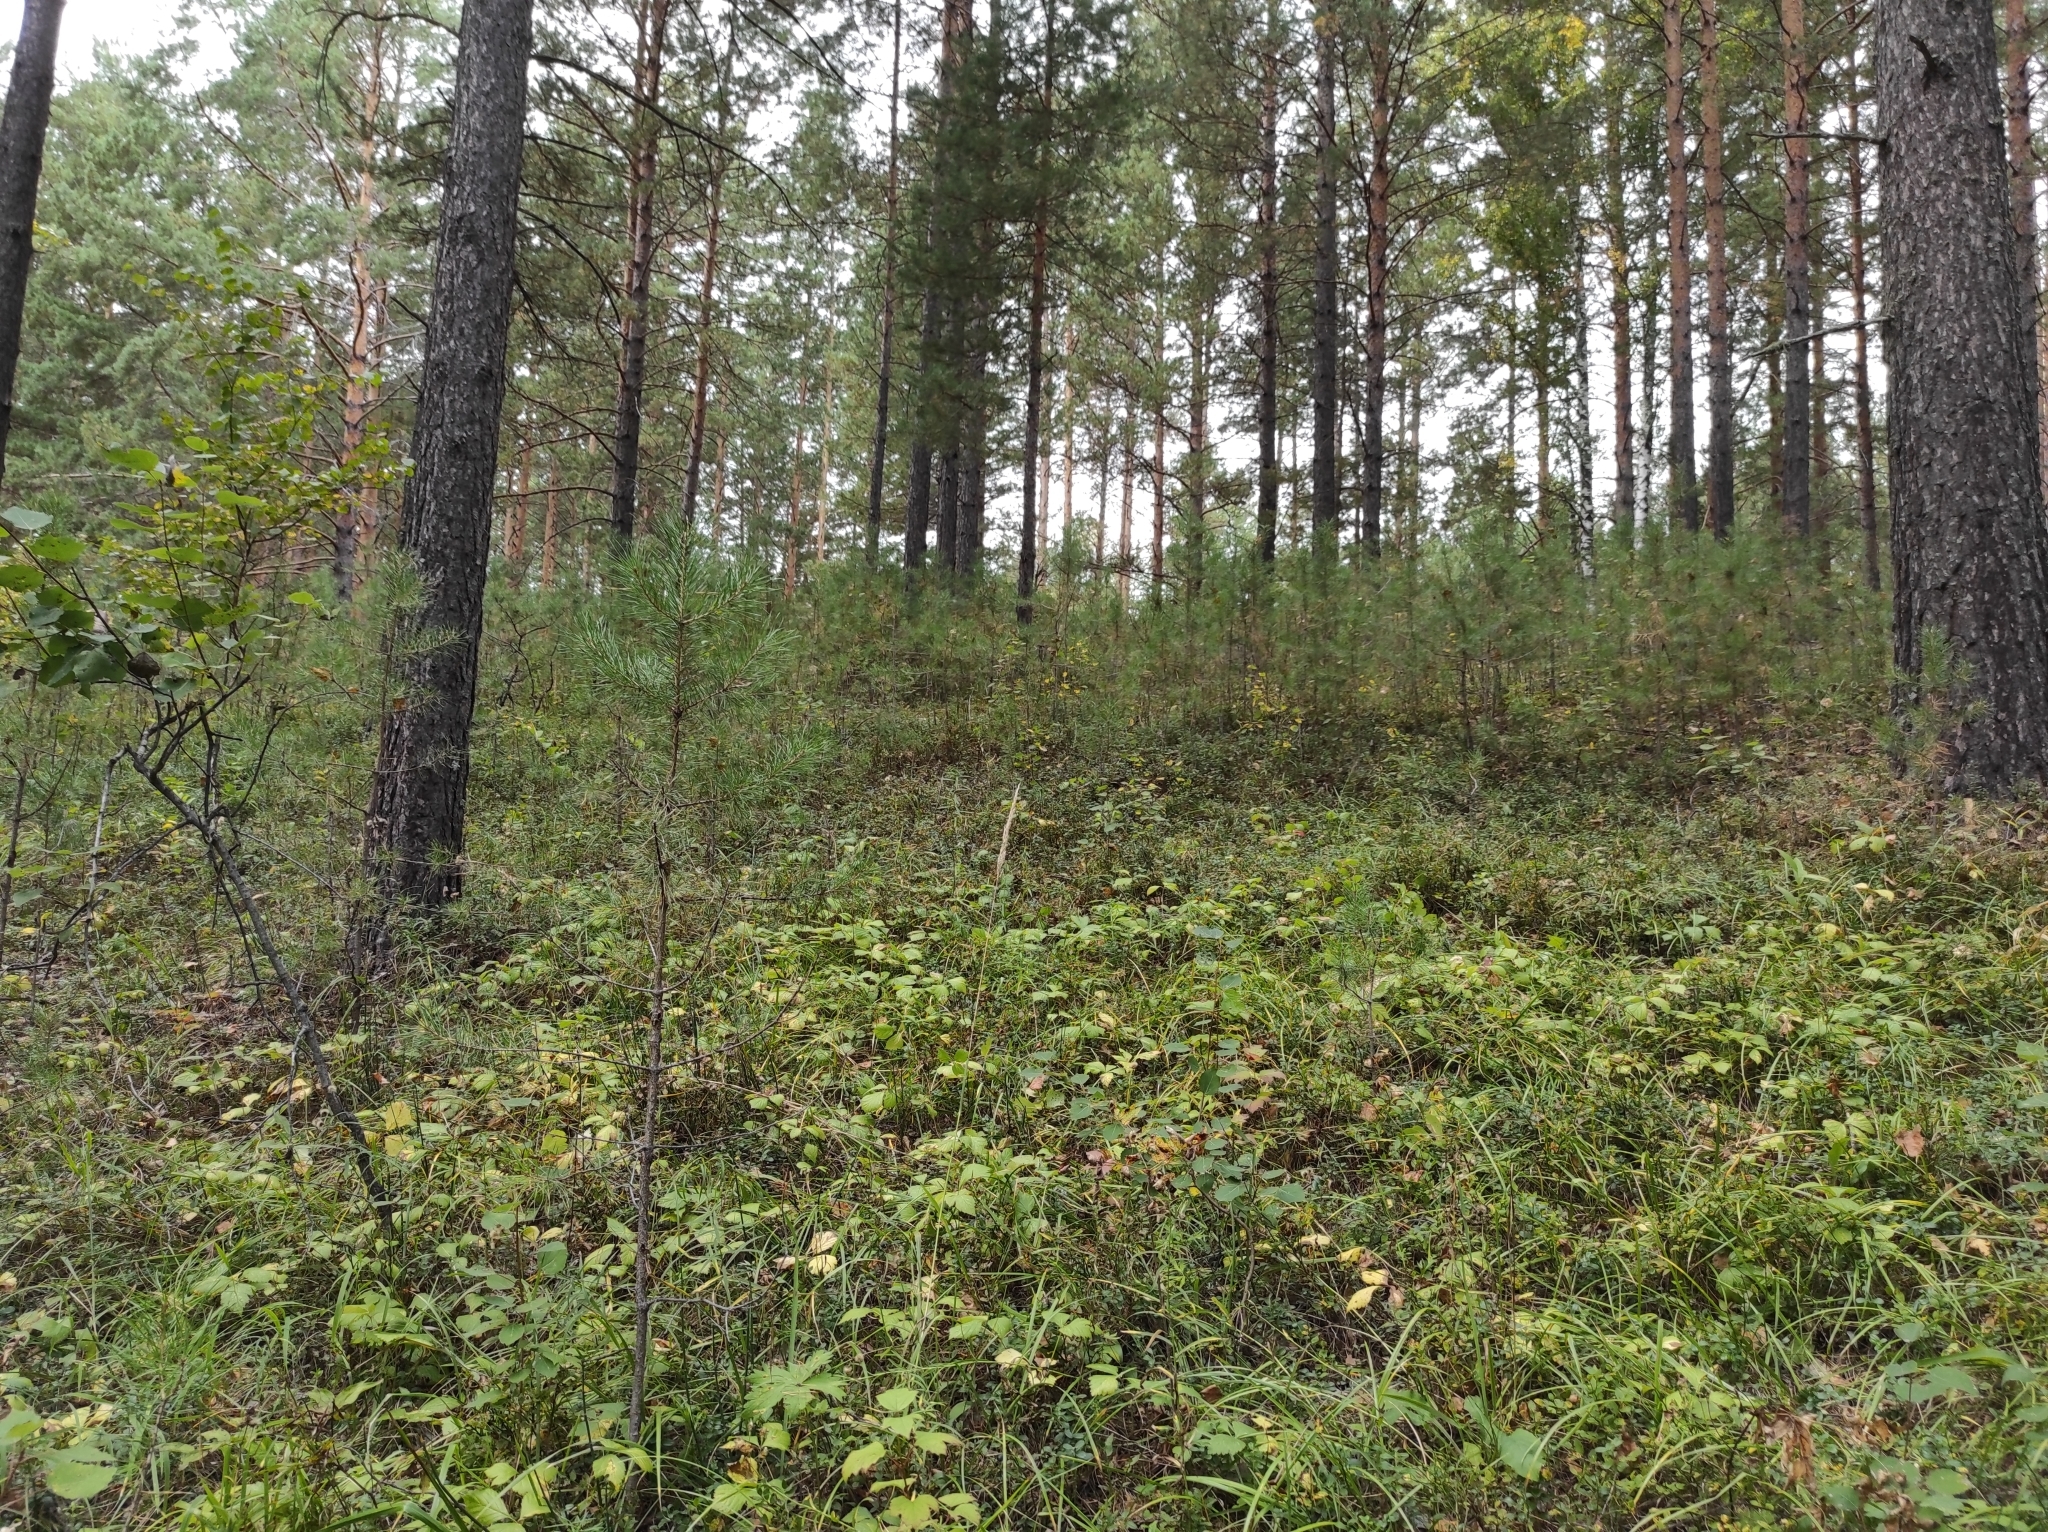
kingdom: Plantae
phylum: Tracheophyta
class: Pinopsida
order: Pinales
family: Pinaceae
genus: Pinus
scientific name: Pinus sylvestris
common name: Scots pine
